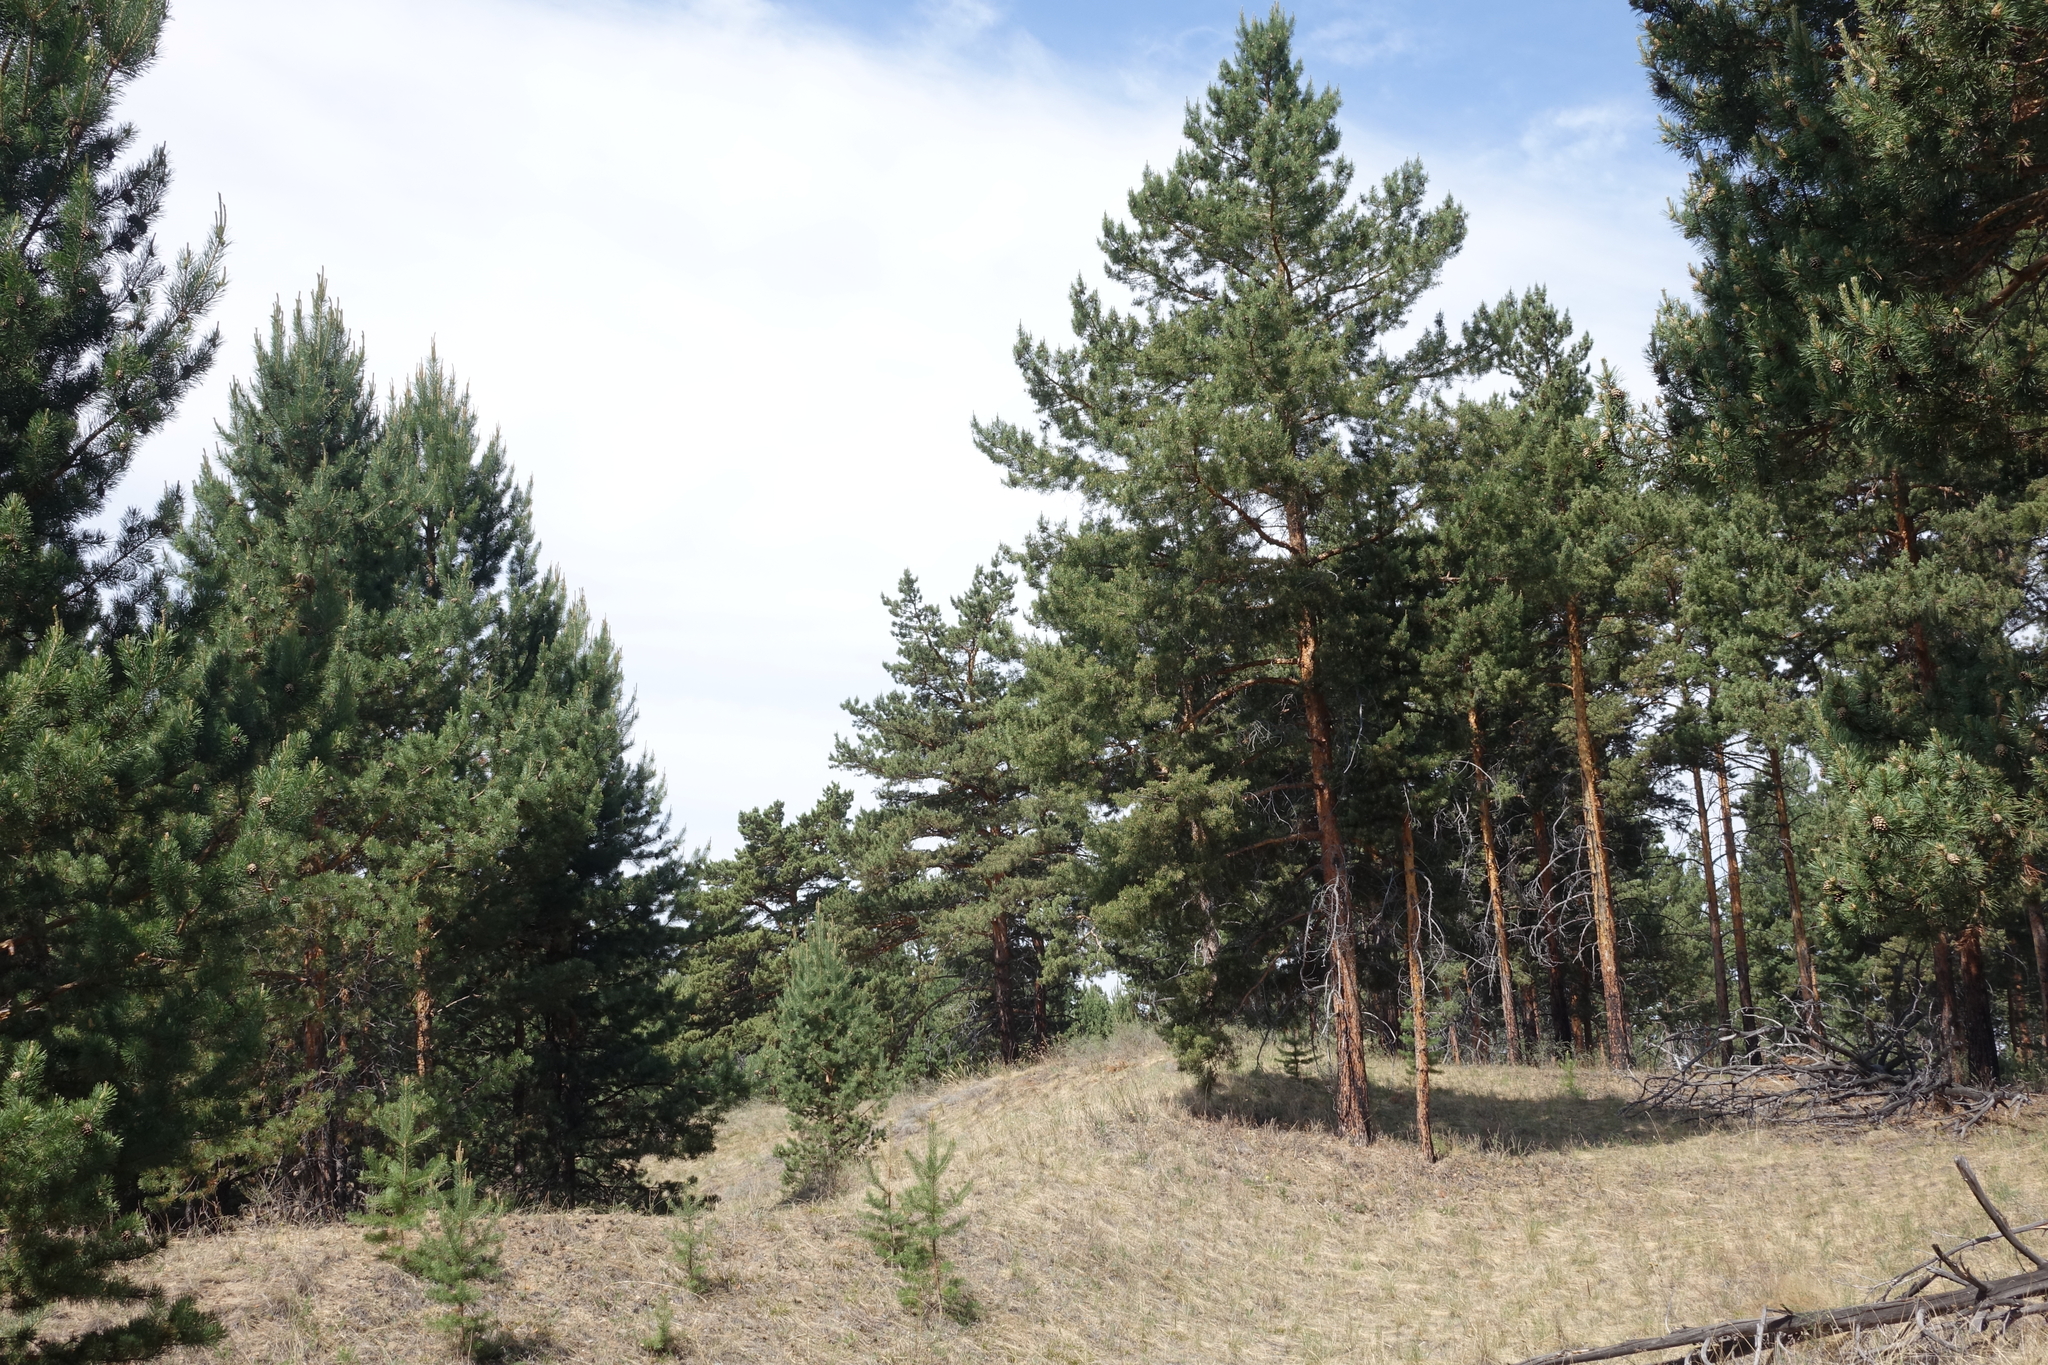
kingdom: Plantae
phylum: Tracheophyta
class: Pinopsida
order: Pinales
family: Pinaceae
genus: Pinus
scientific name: Pinus sylvestris
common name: Scots pine
